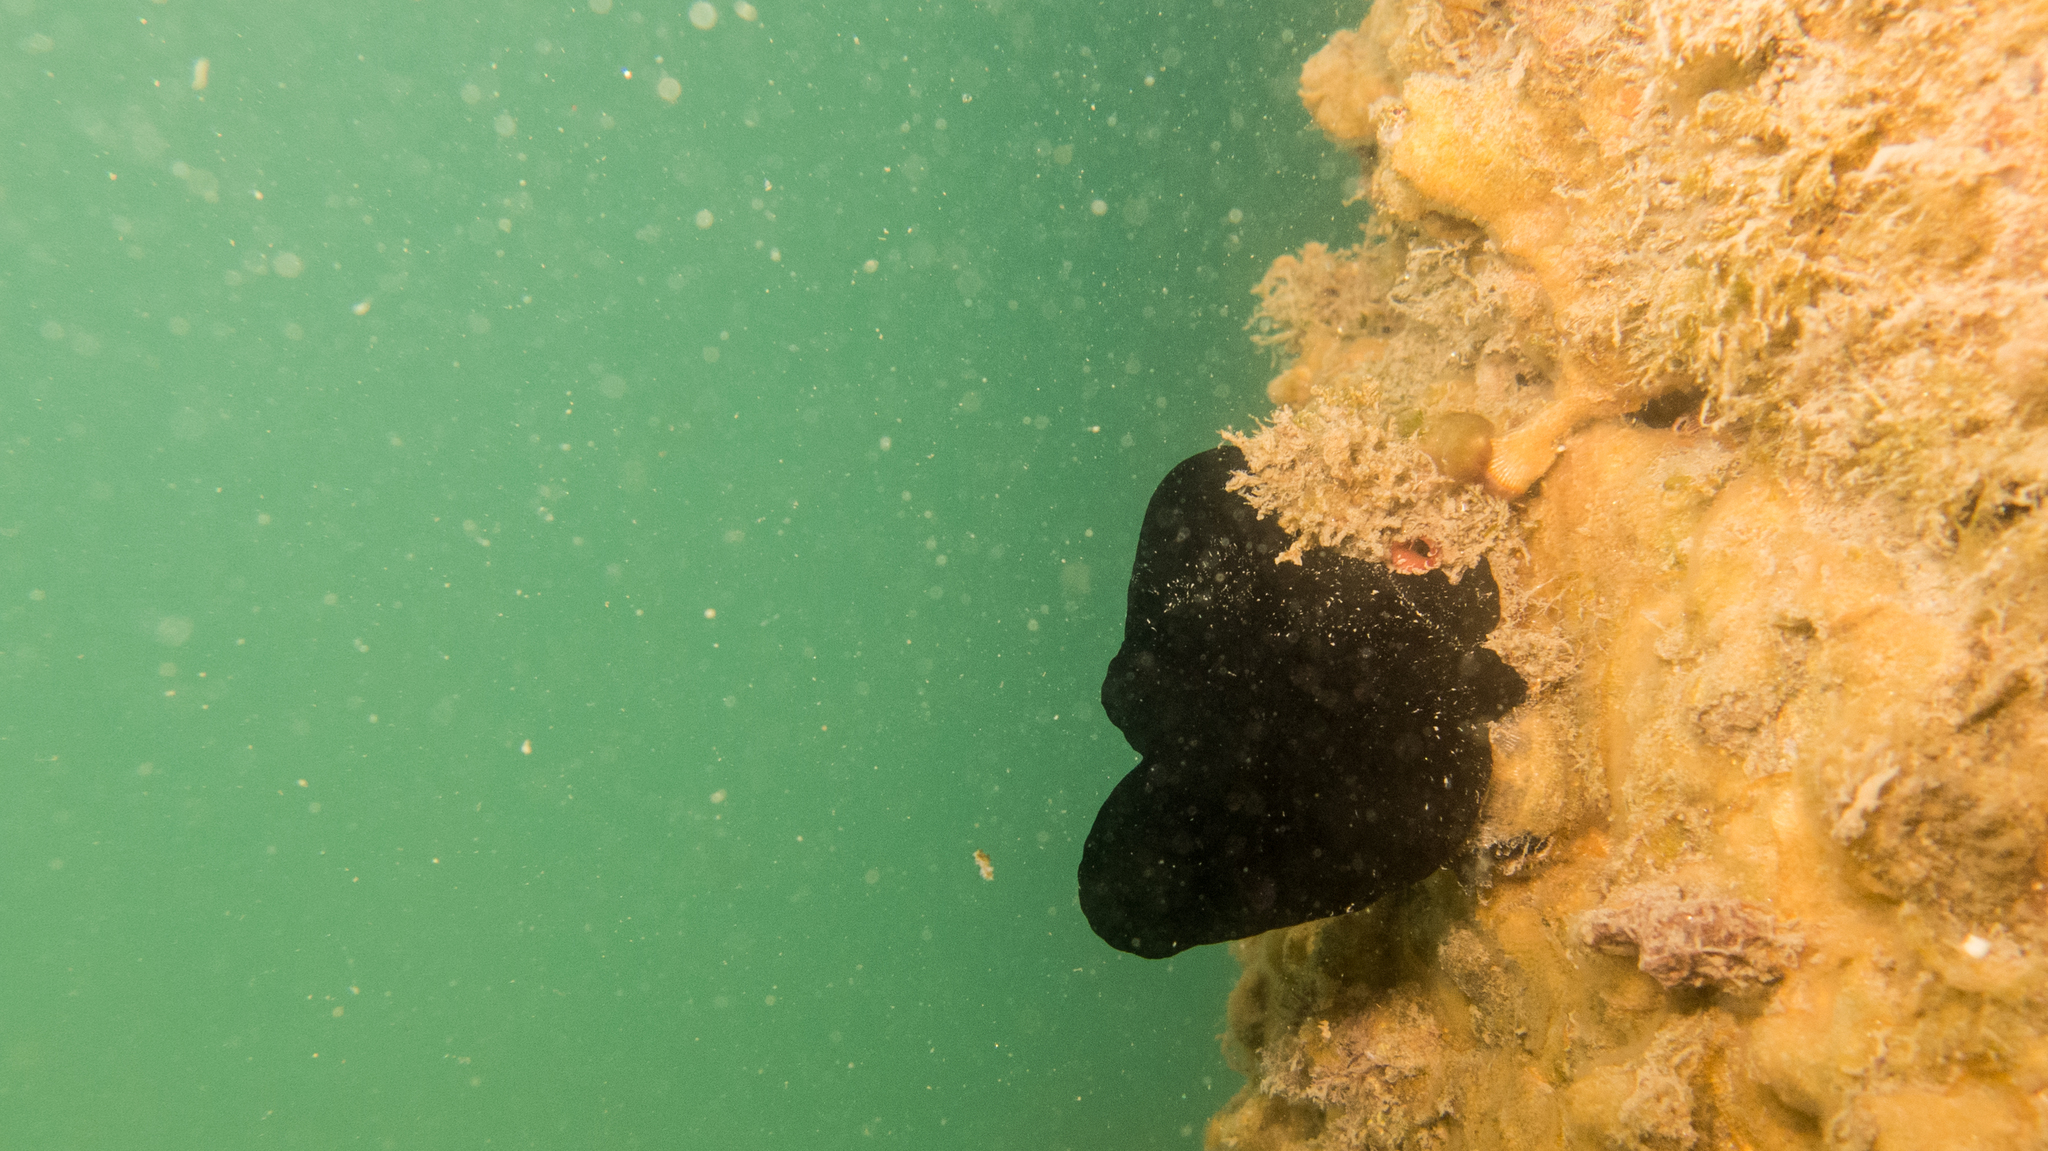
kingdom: Animalia
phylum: Chordata
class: Ascidiacea
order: Phlebobranchia
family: Ascidiidae
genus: Phallusia
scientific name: Phallusia nigra
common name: Black tunicate
